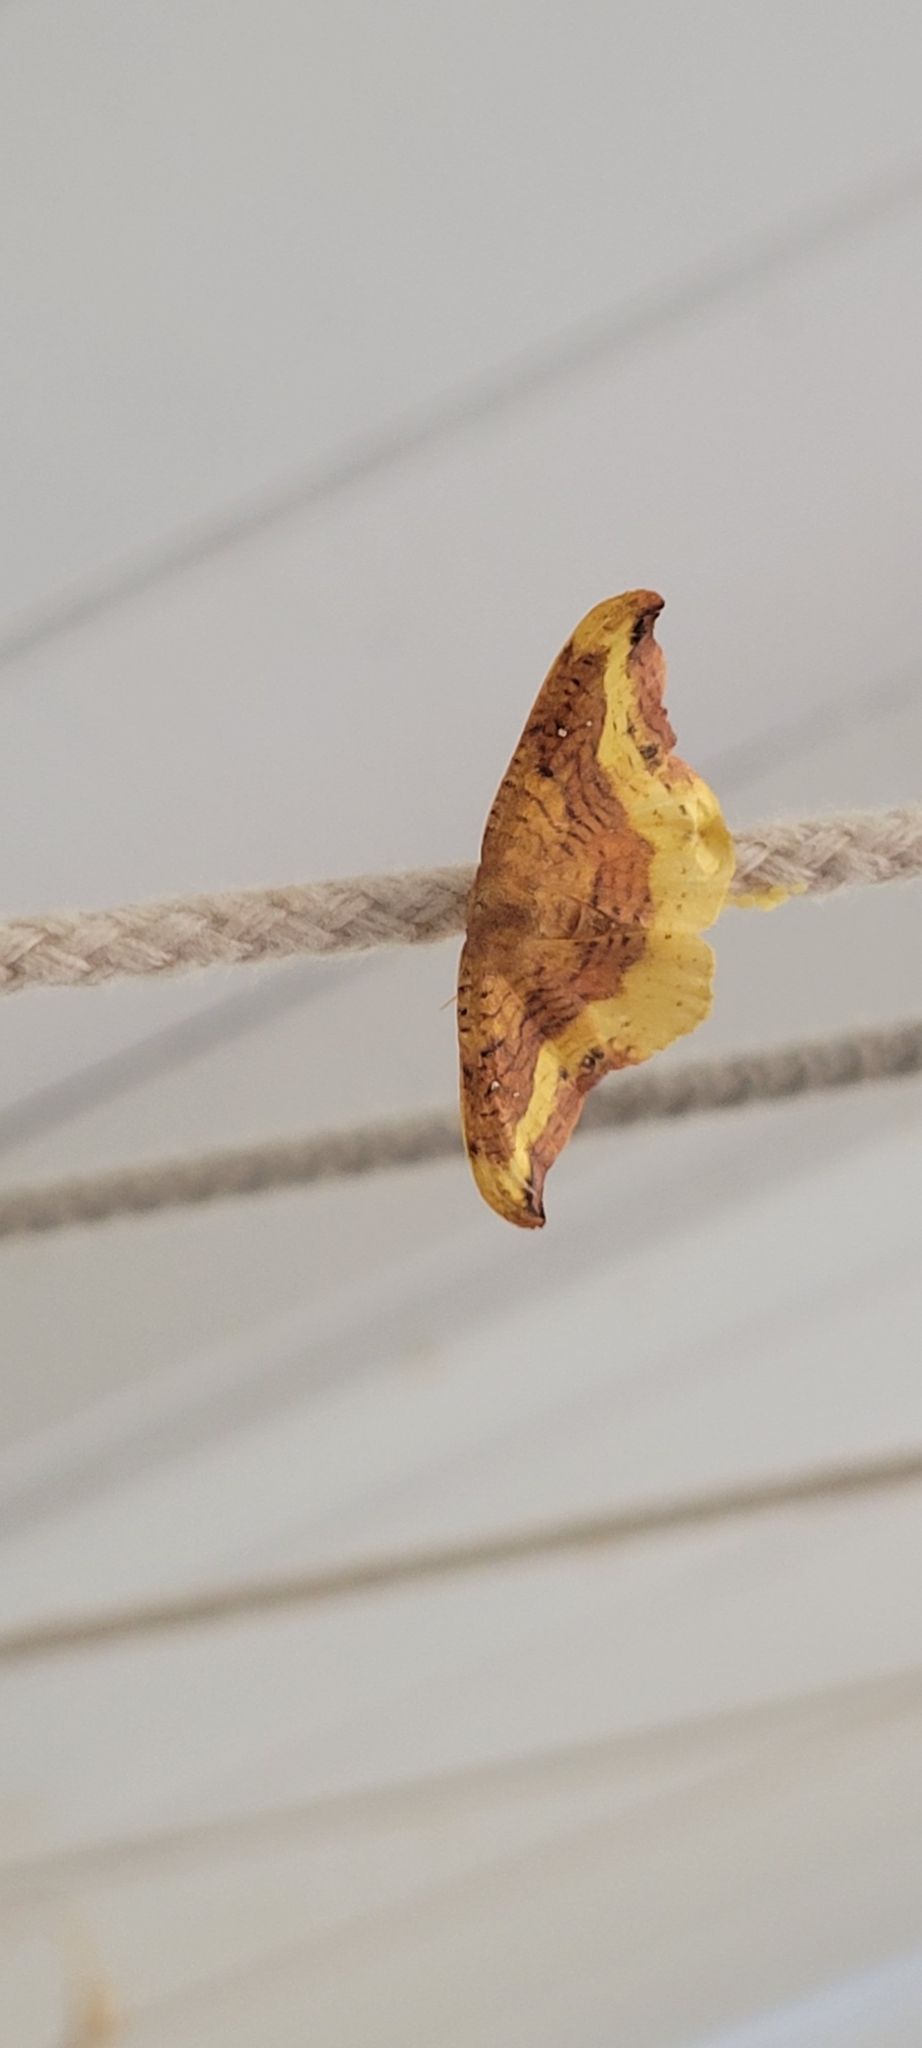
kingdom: Animalia
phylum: Arthropoda
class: Insecta
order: Lepidoptera
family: Drepanidae
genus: Oreta
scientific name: Oreta rosea
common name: Rose hooktip
